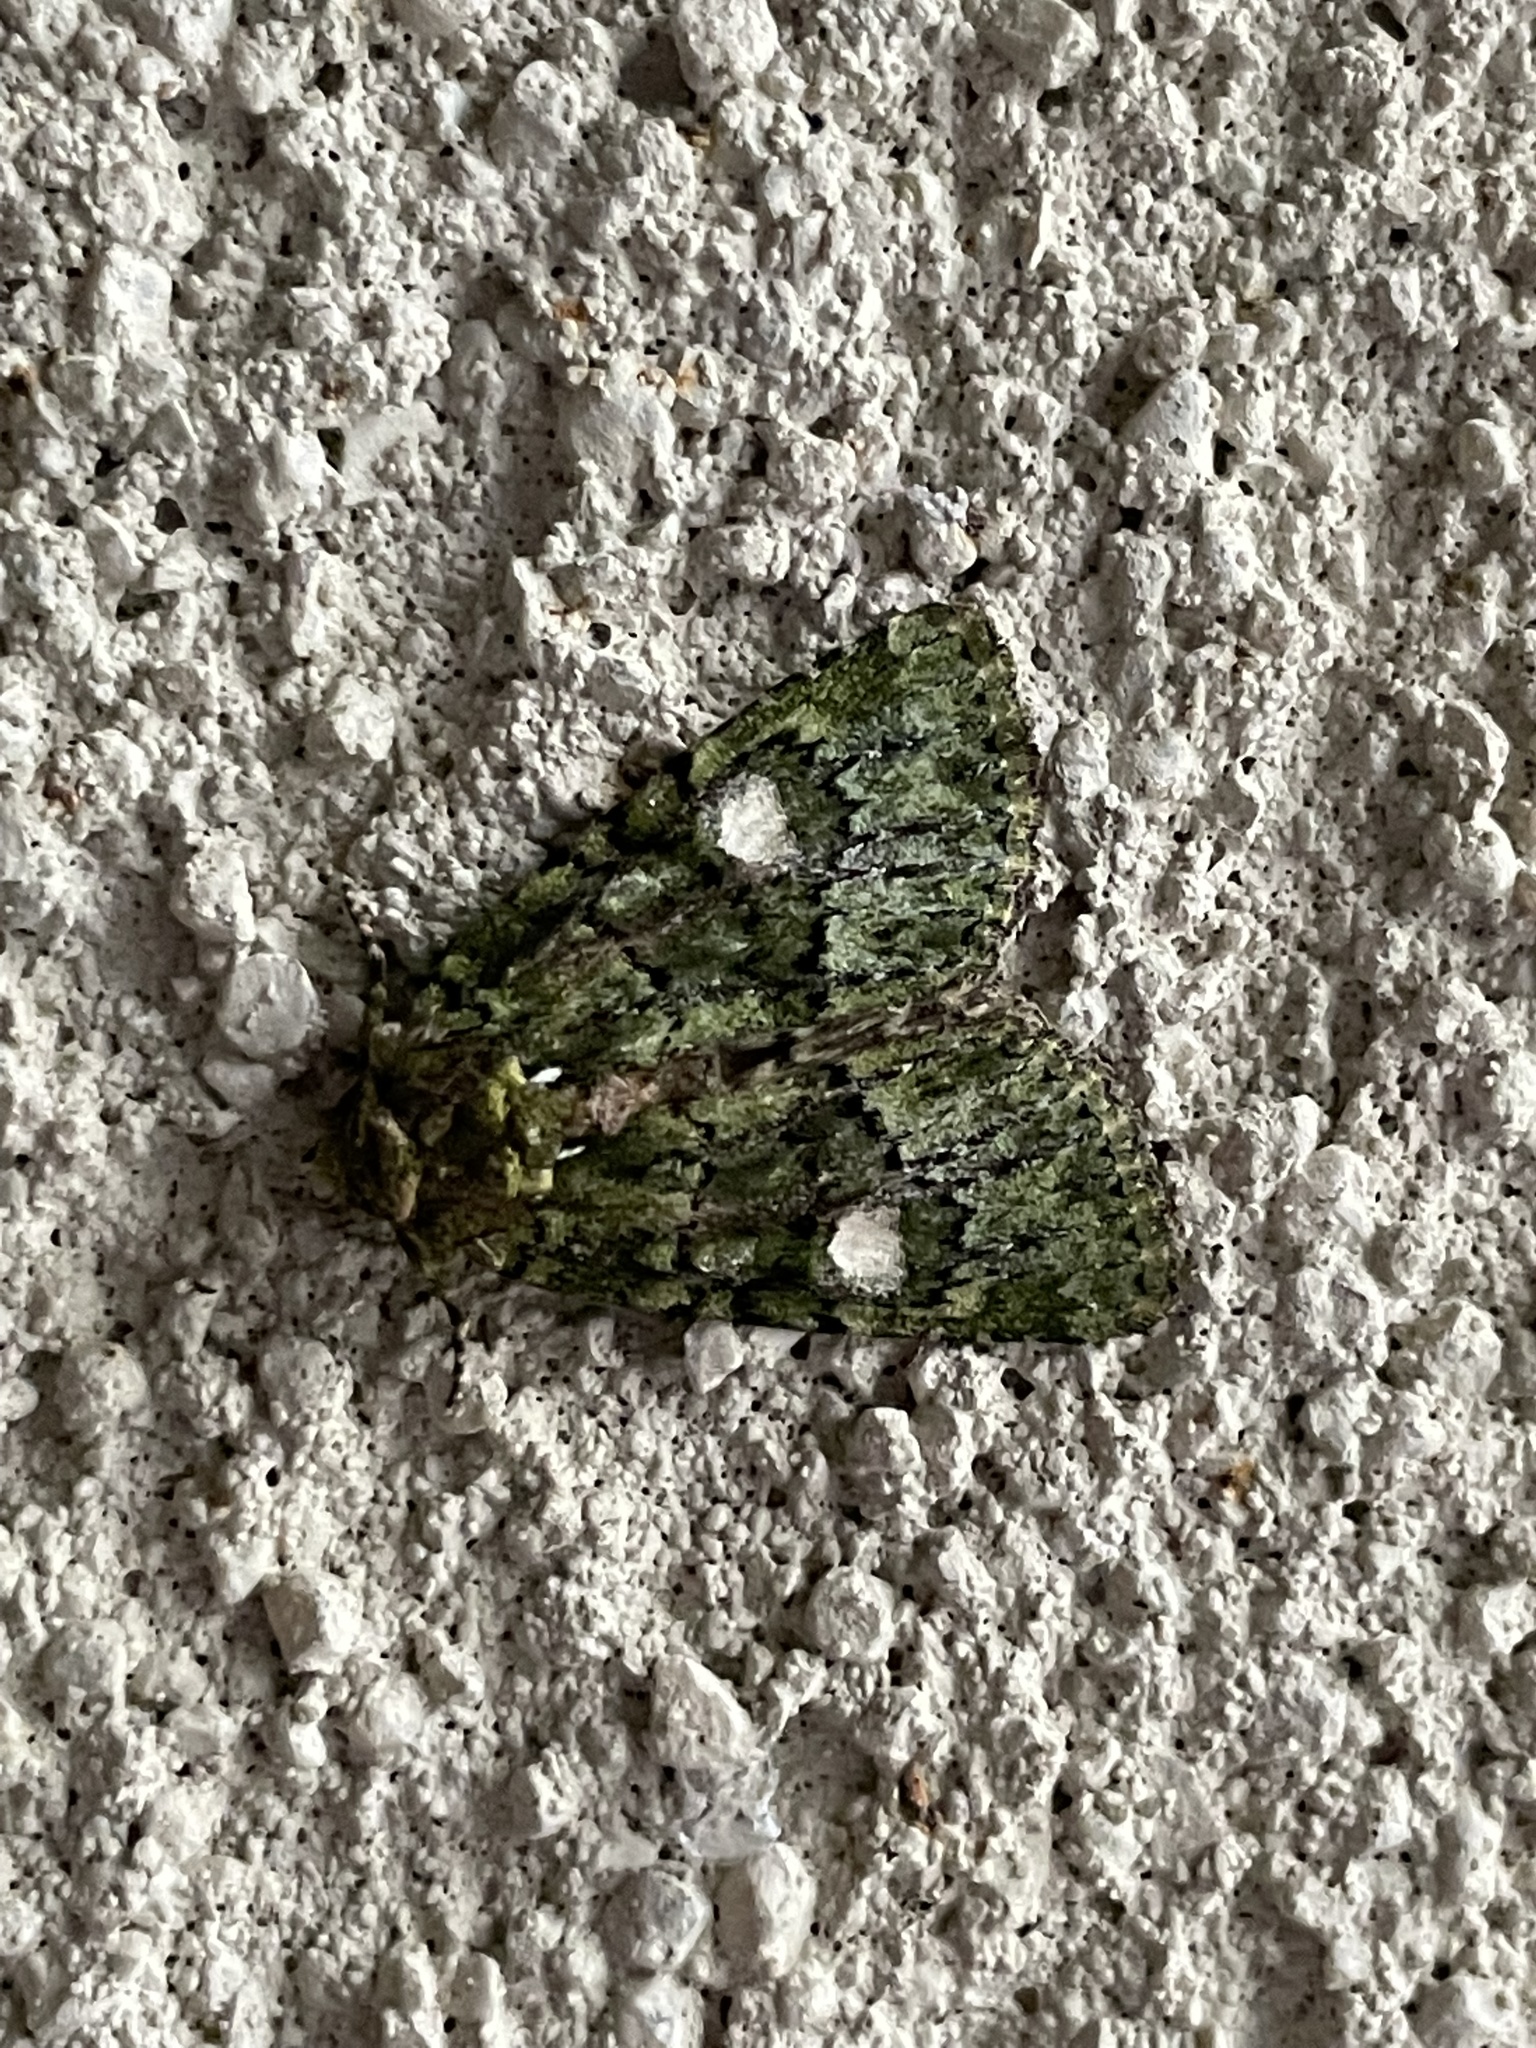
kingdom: Animalia
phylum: Arthropoda
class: Insecta
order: Lepidoptera
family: Noctuidae
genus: Phosphila
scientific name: Phosphila miselioides
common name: Spotted phosphila moth
